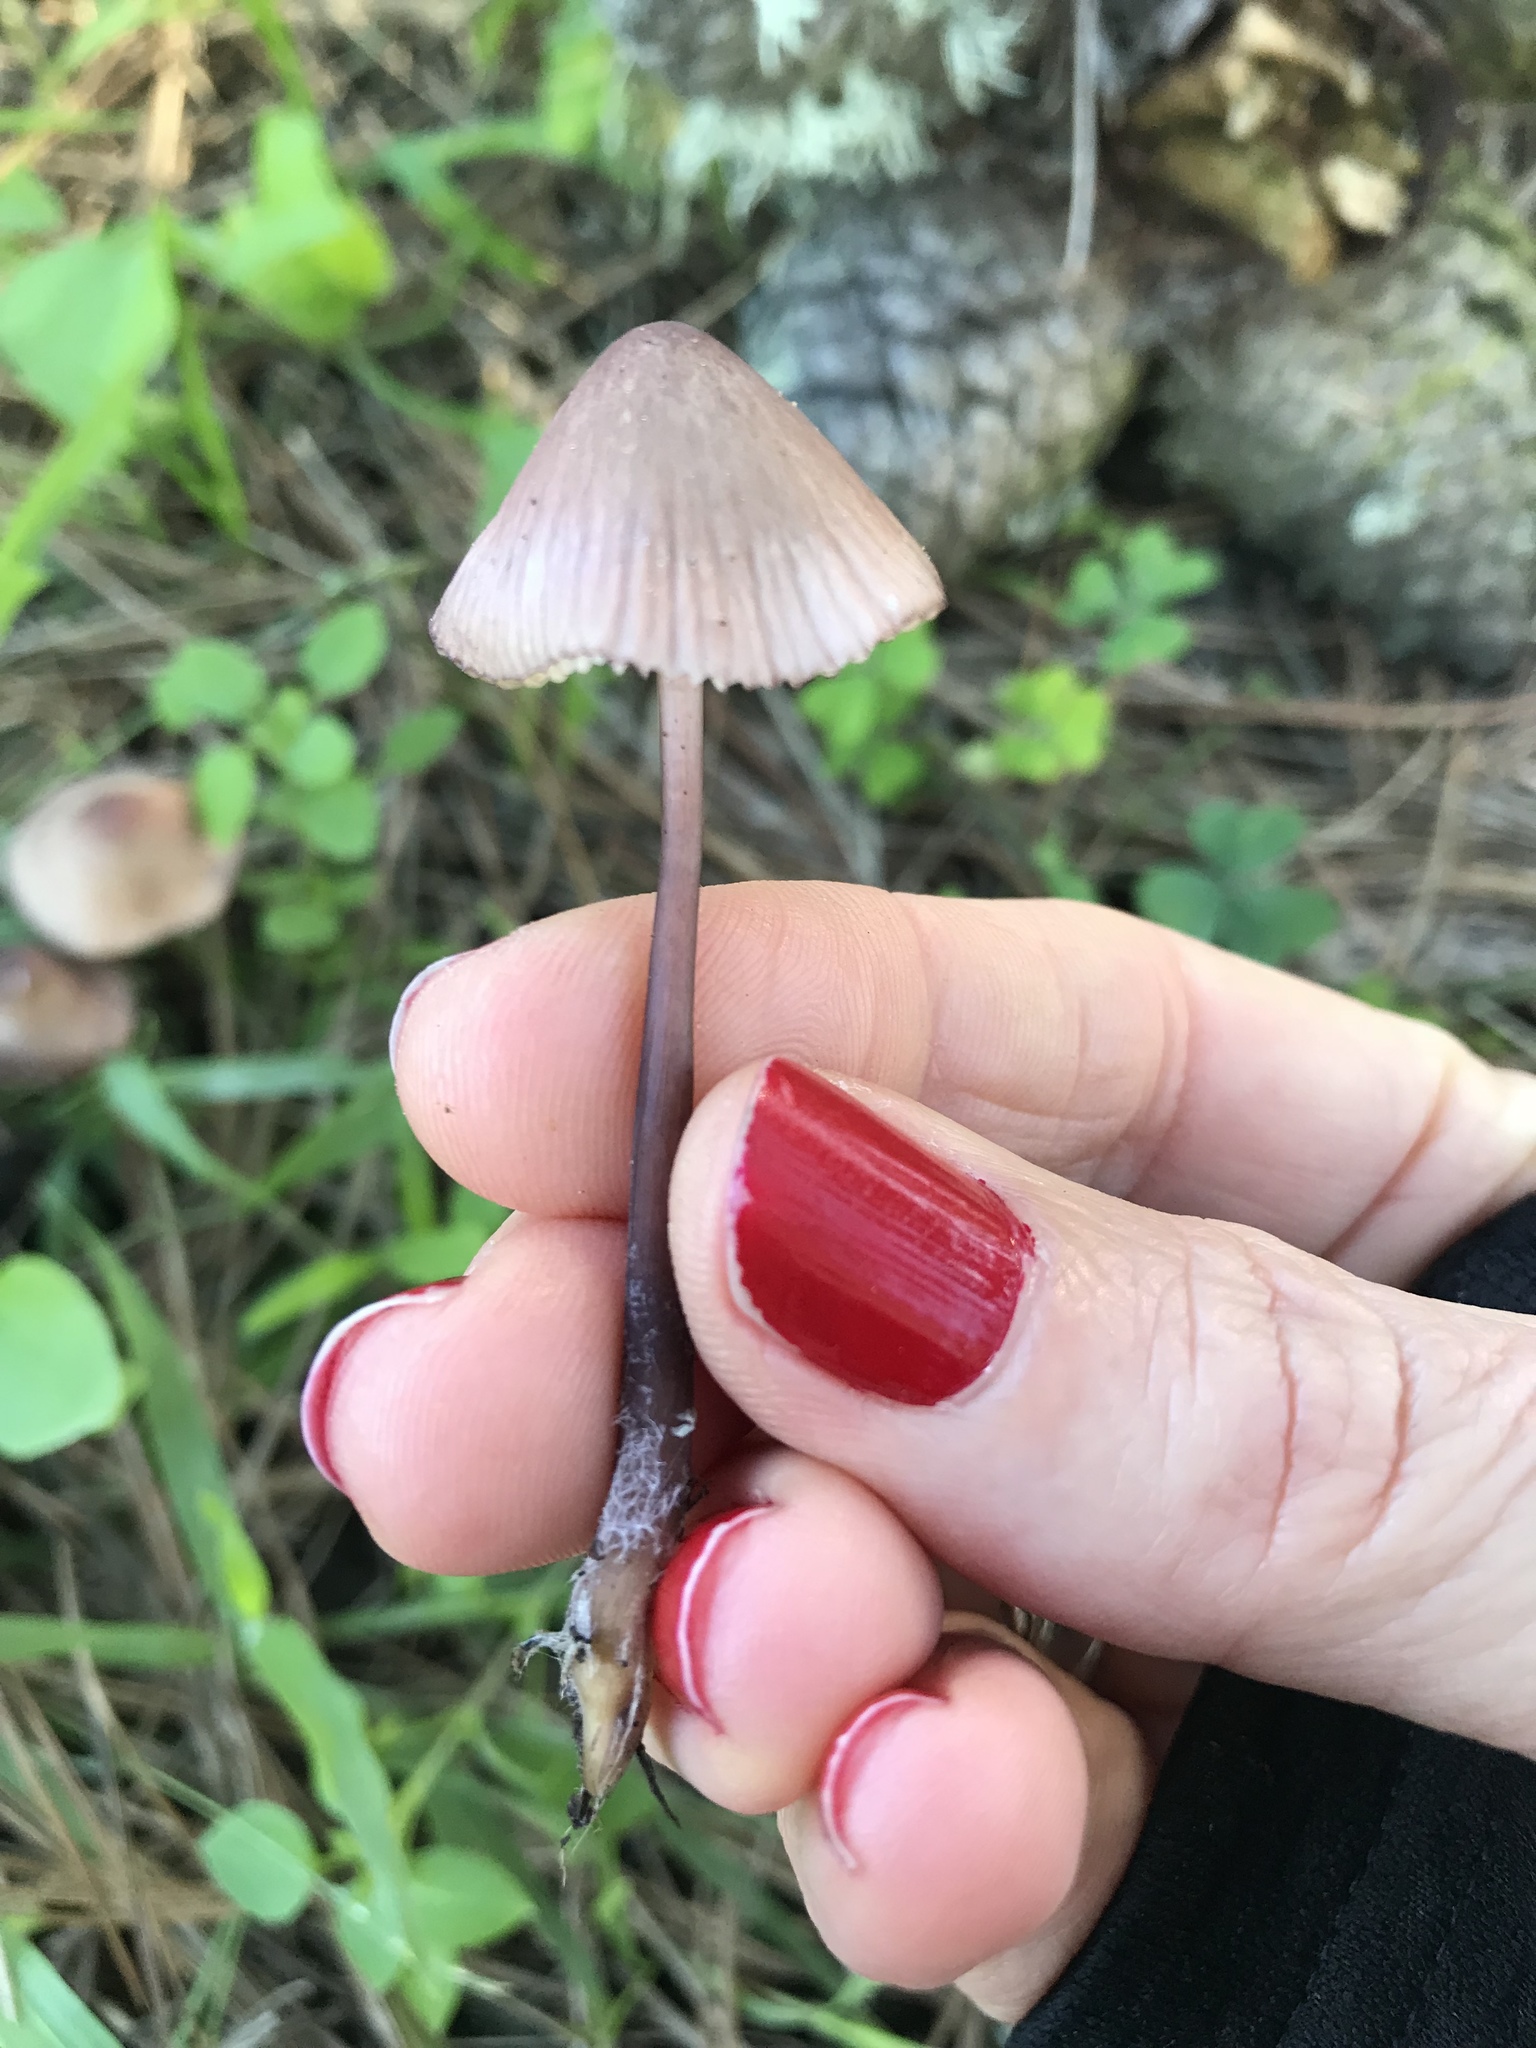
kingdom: Fungi
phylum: Basidiomycota
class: Agaricomycetes
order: Agaricales
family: Mycenaceae
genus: Mycena
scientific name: Mycena purpureofusca
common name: Purple edge bonnet
